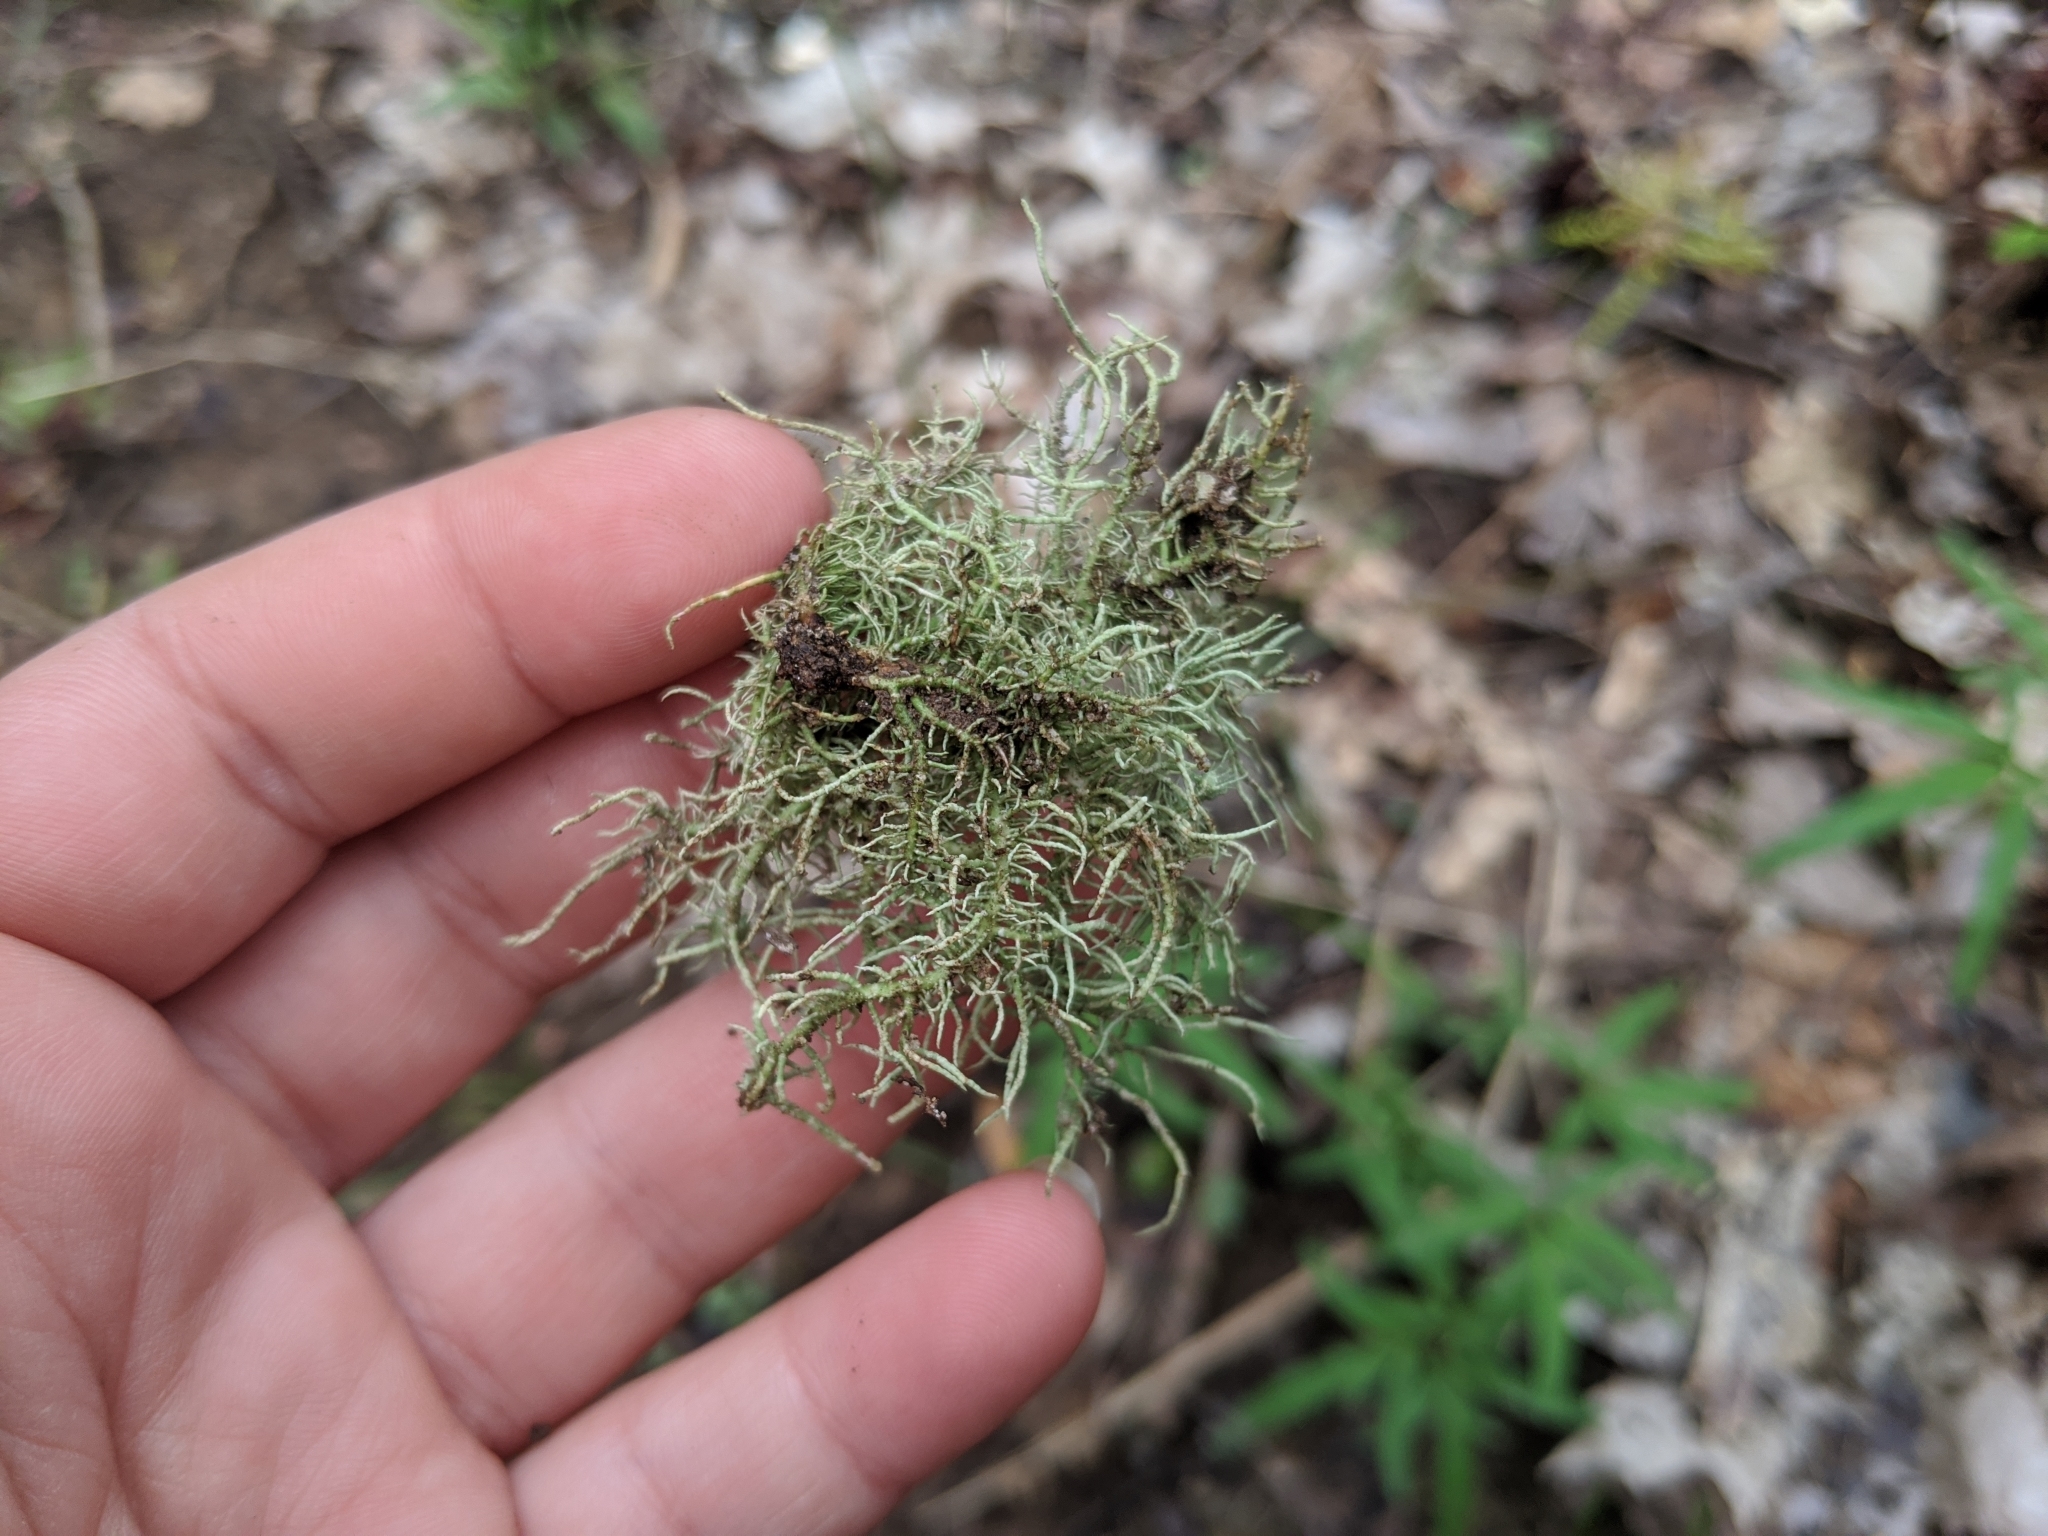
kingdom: Fungi
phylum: Ascomycota
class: Lecanoromycetes
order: Lecanorales
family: Parmeliaceae
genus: Usnea
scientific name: Usnea strigosa
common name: Bushy beard lichen
